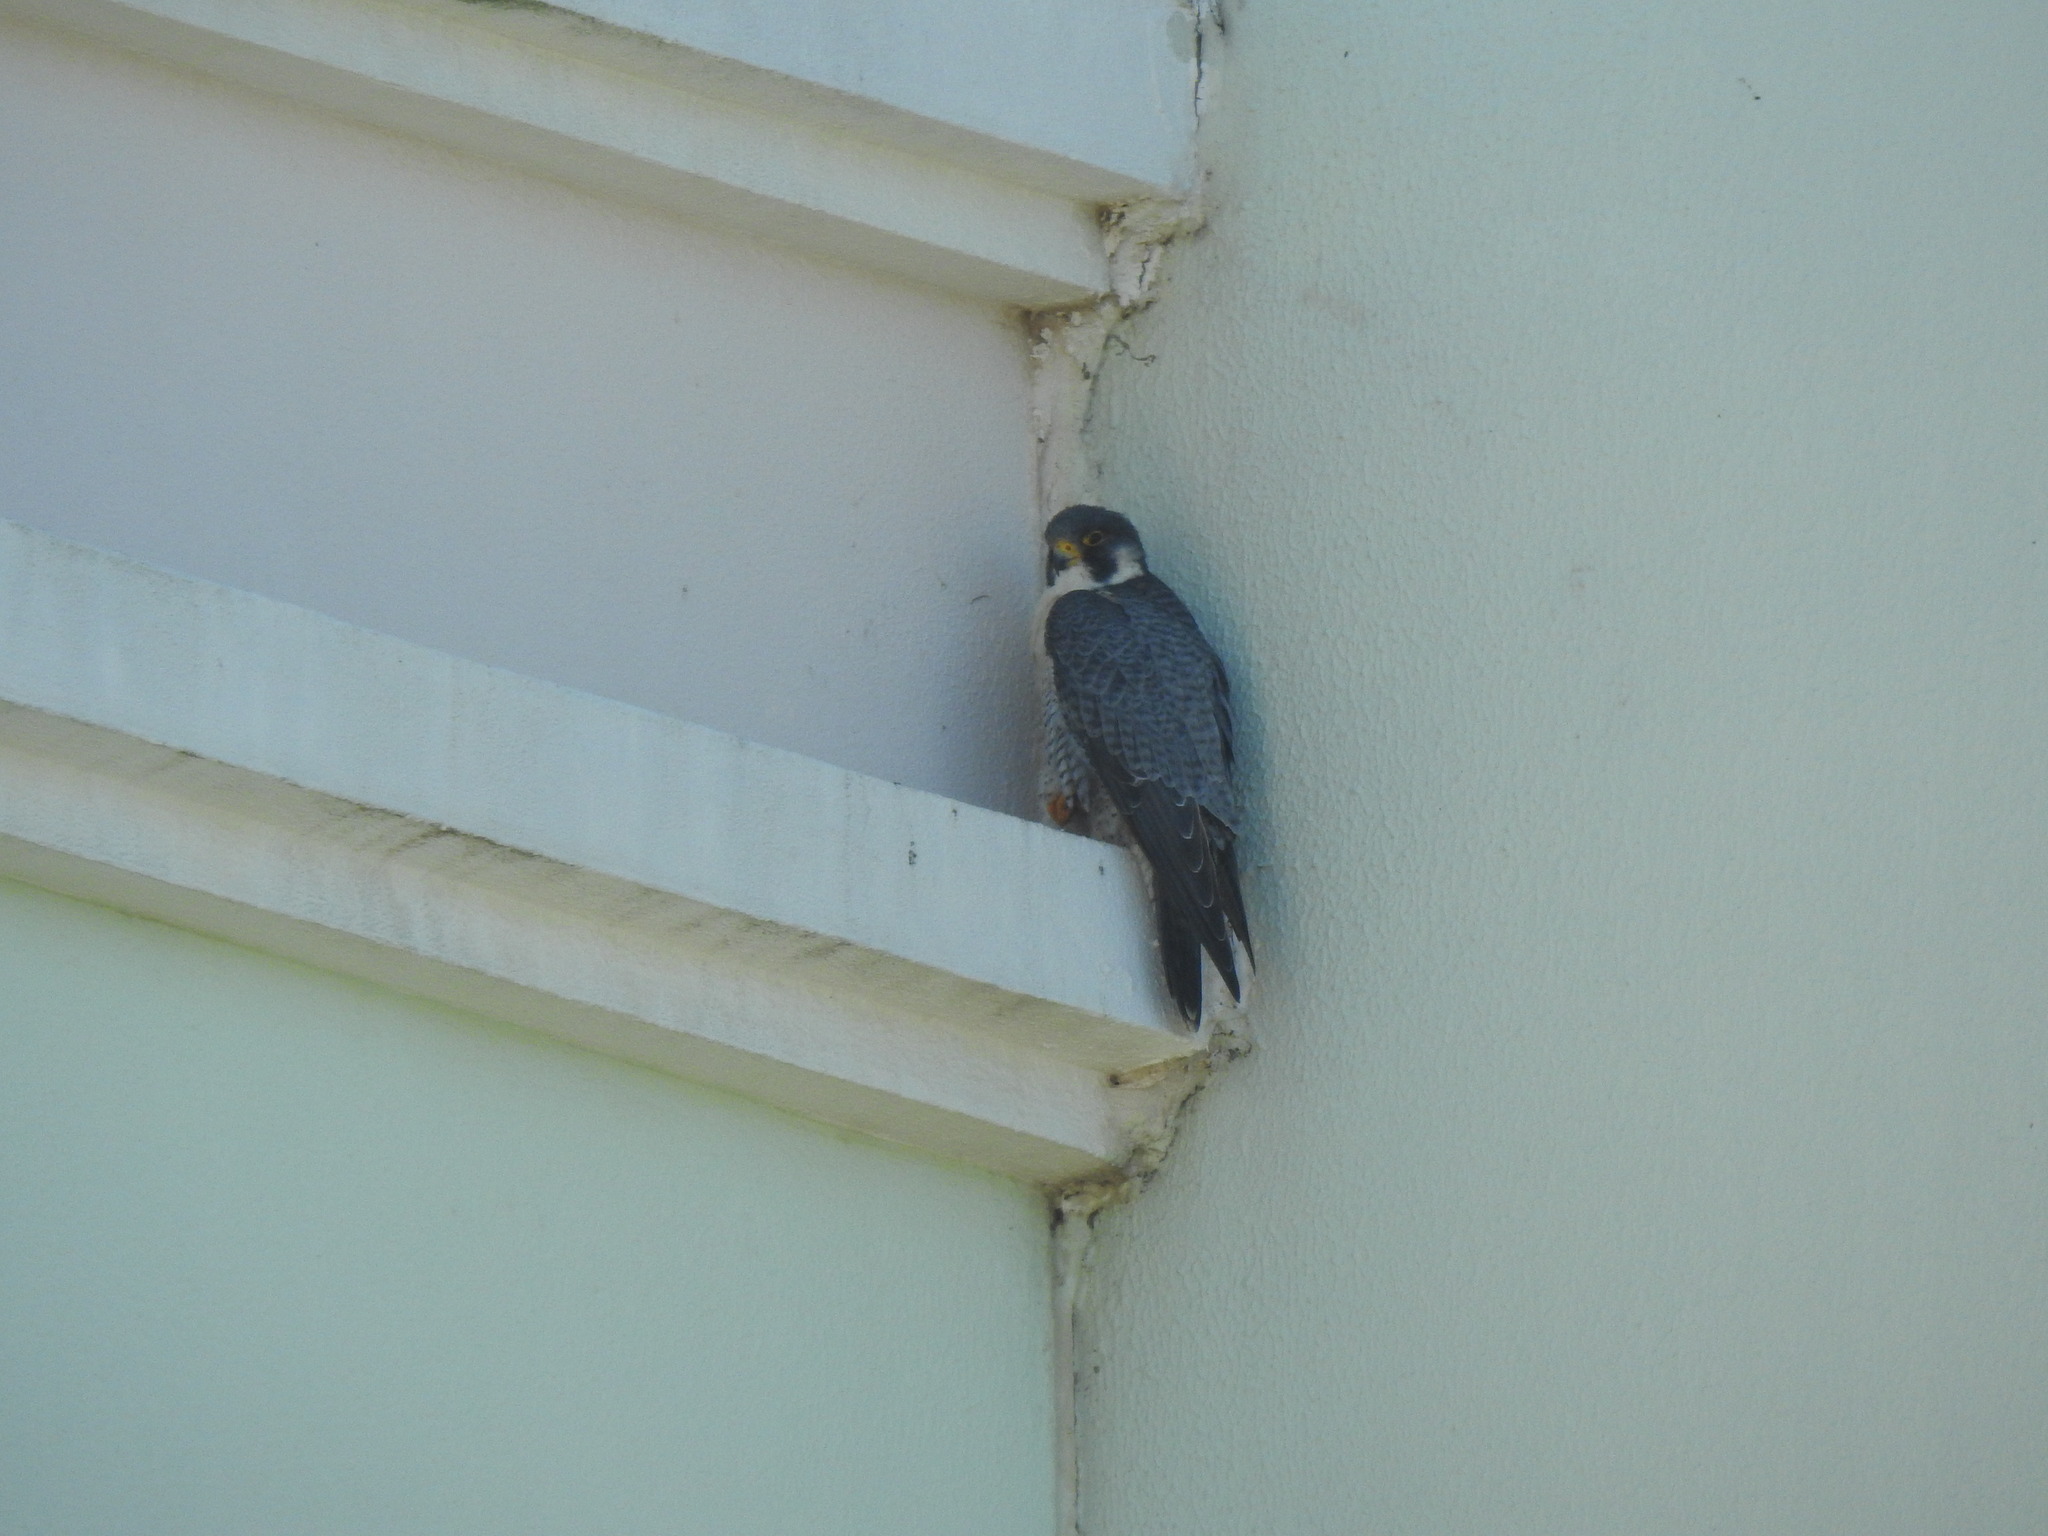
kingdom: Animalia
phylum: Chordata
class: Aves
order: Falconiformes
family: Falconidae
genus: Falco
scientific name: Falco peregrinus
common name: Peregrine falcon
